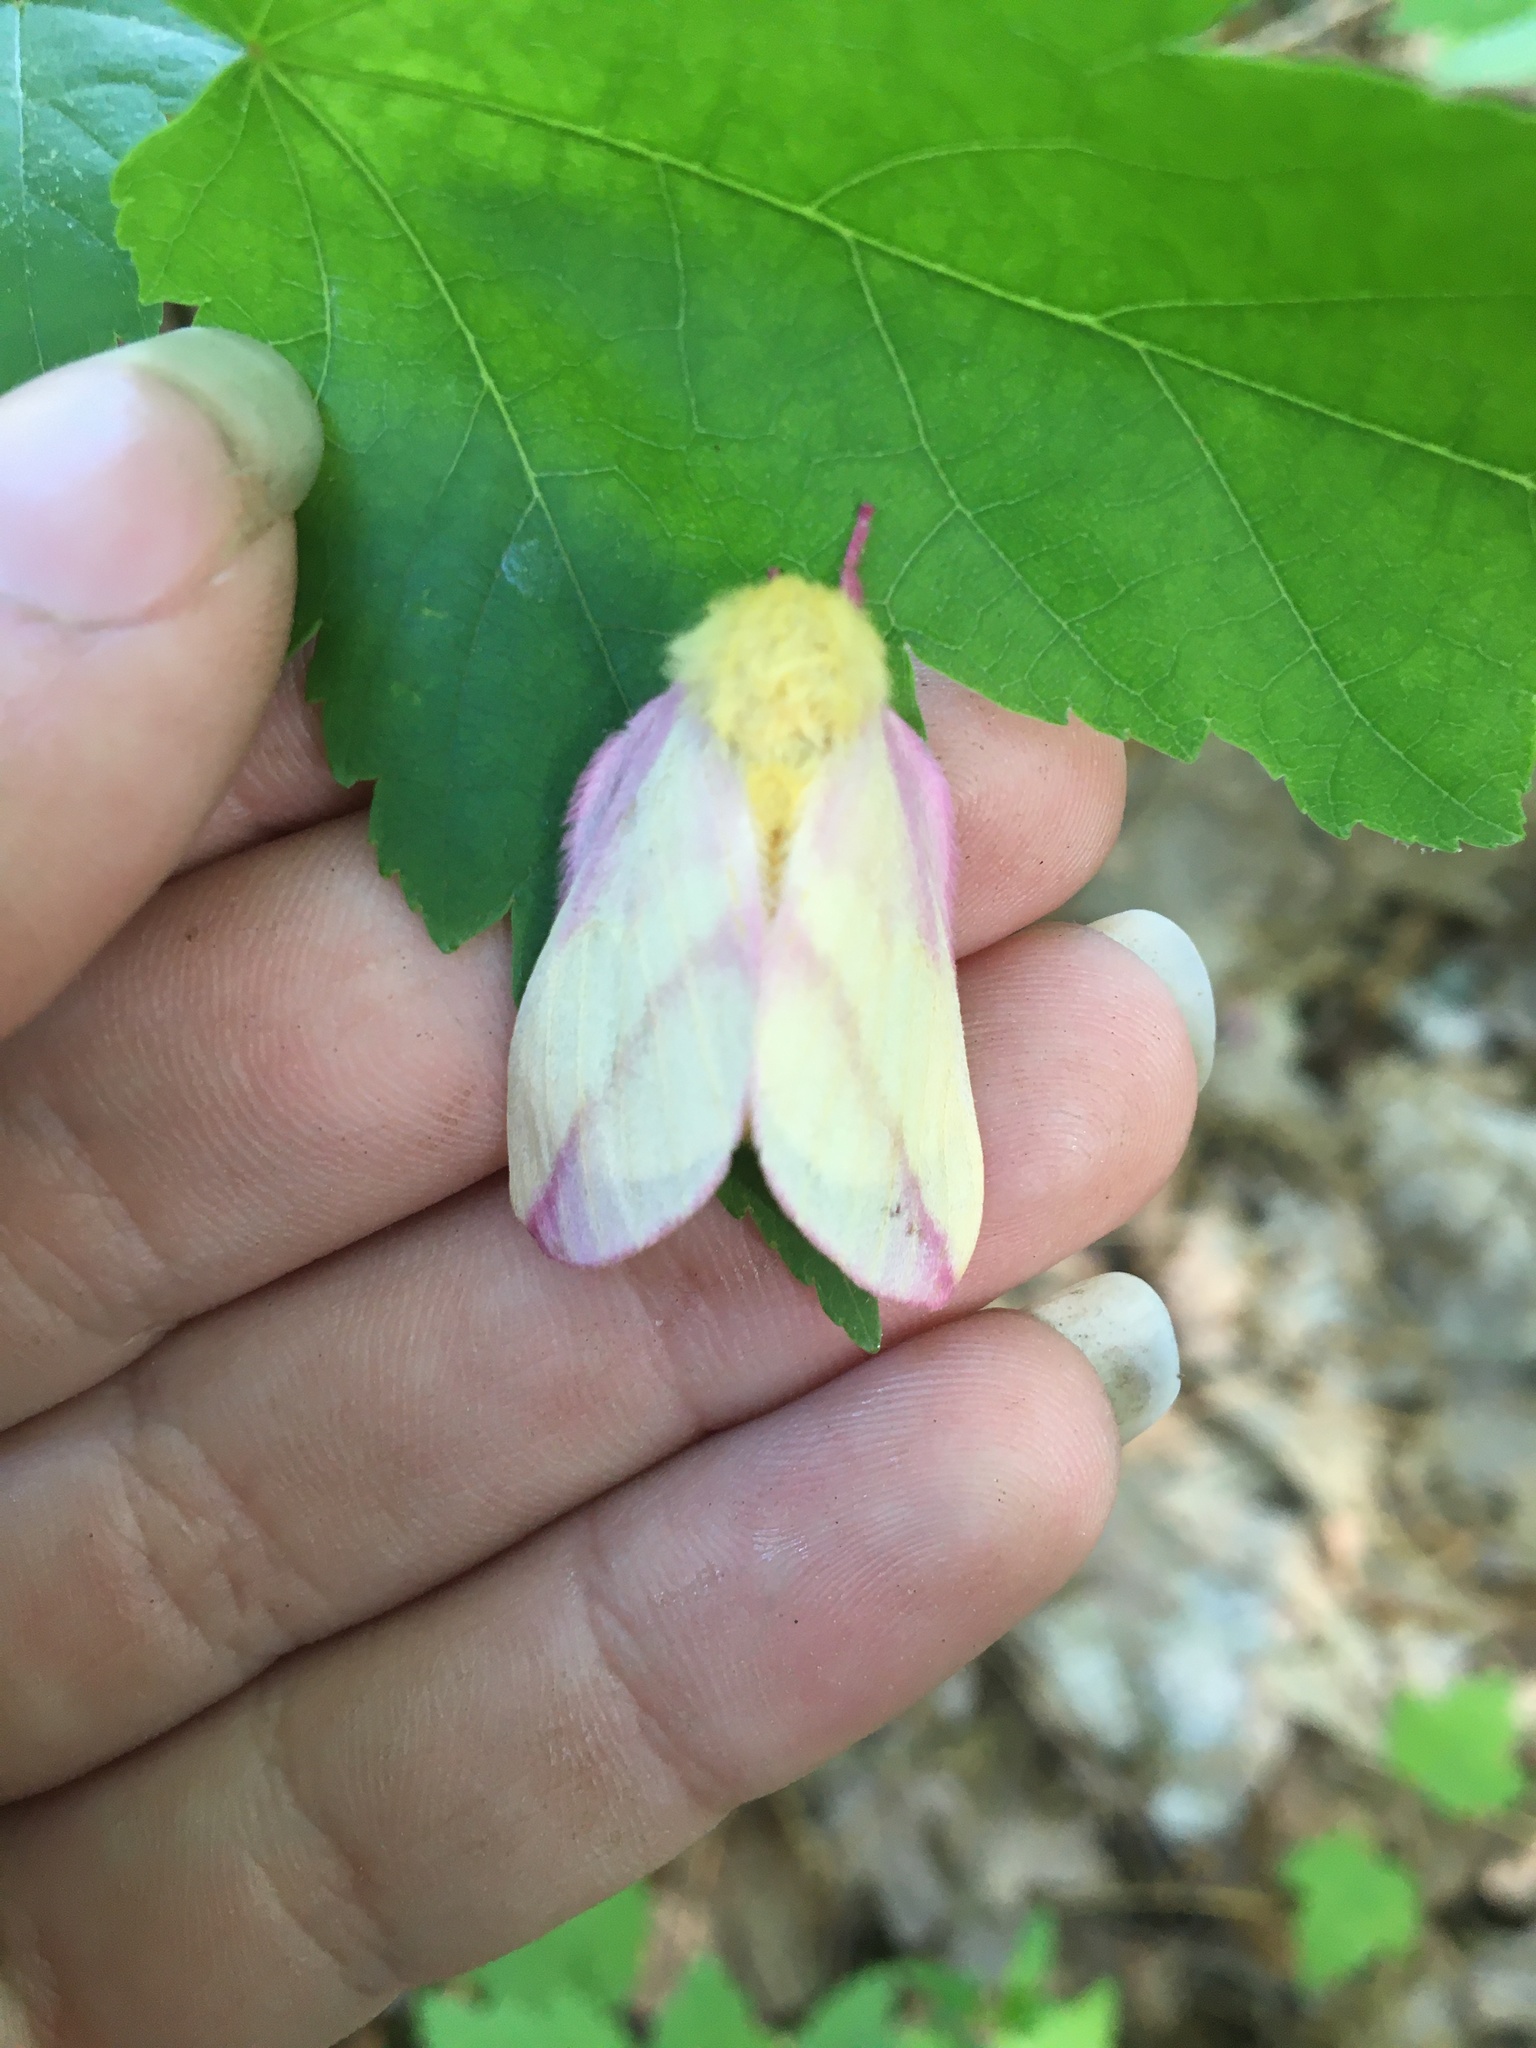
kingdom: Animalia
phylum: Arthropoda
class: Insecta
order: Lepidoptera
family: Saturniidae
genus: Dryocampa
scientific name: Dryocampa rubicunda
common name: Rosy maple moth
